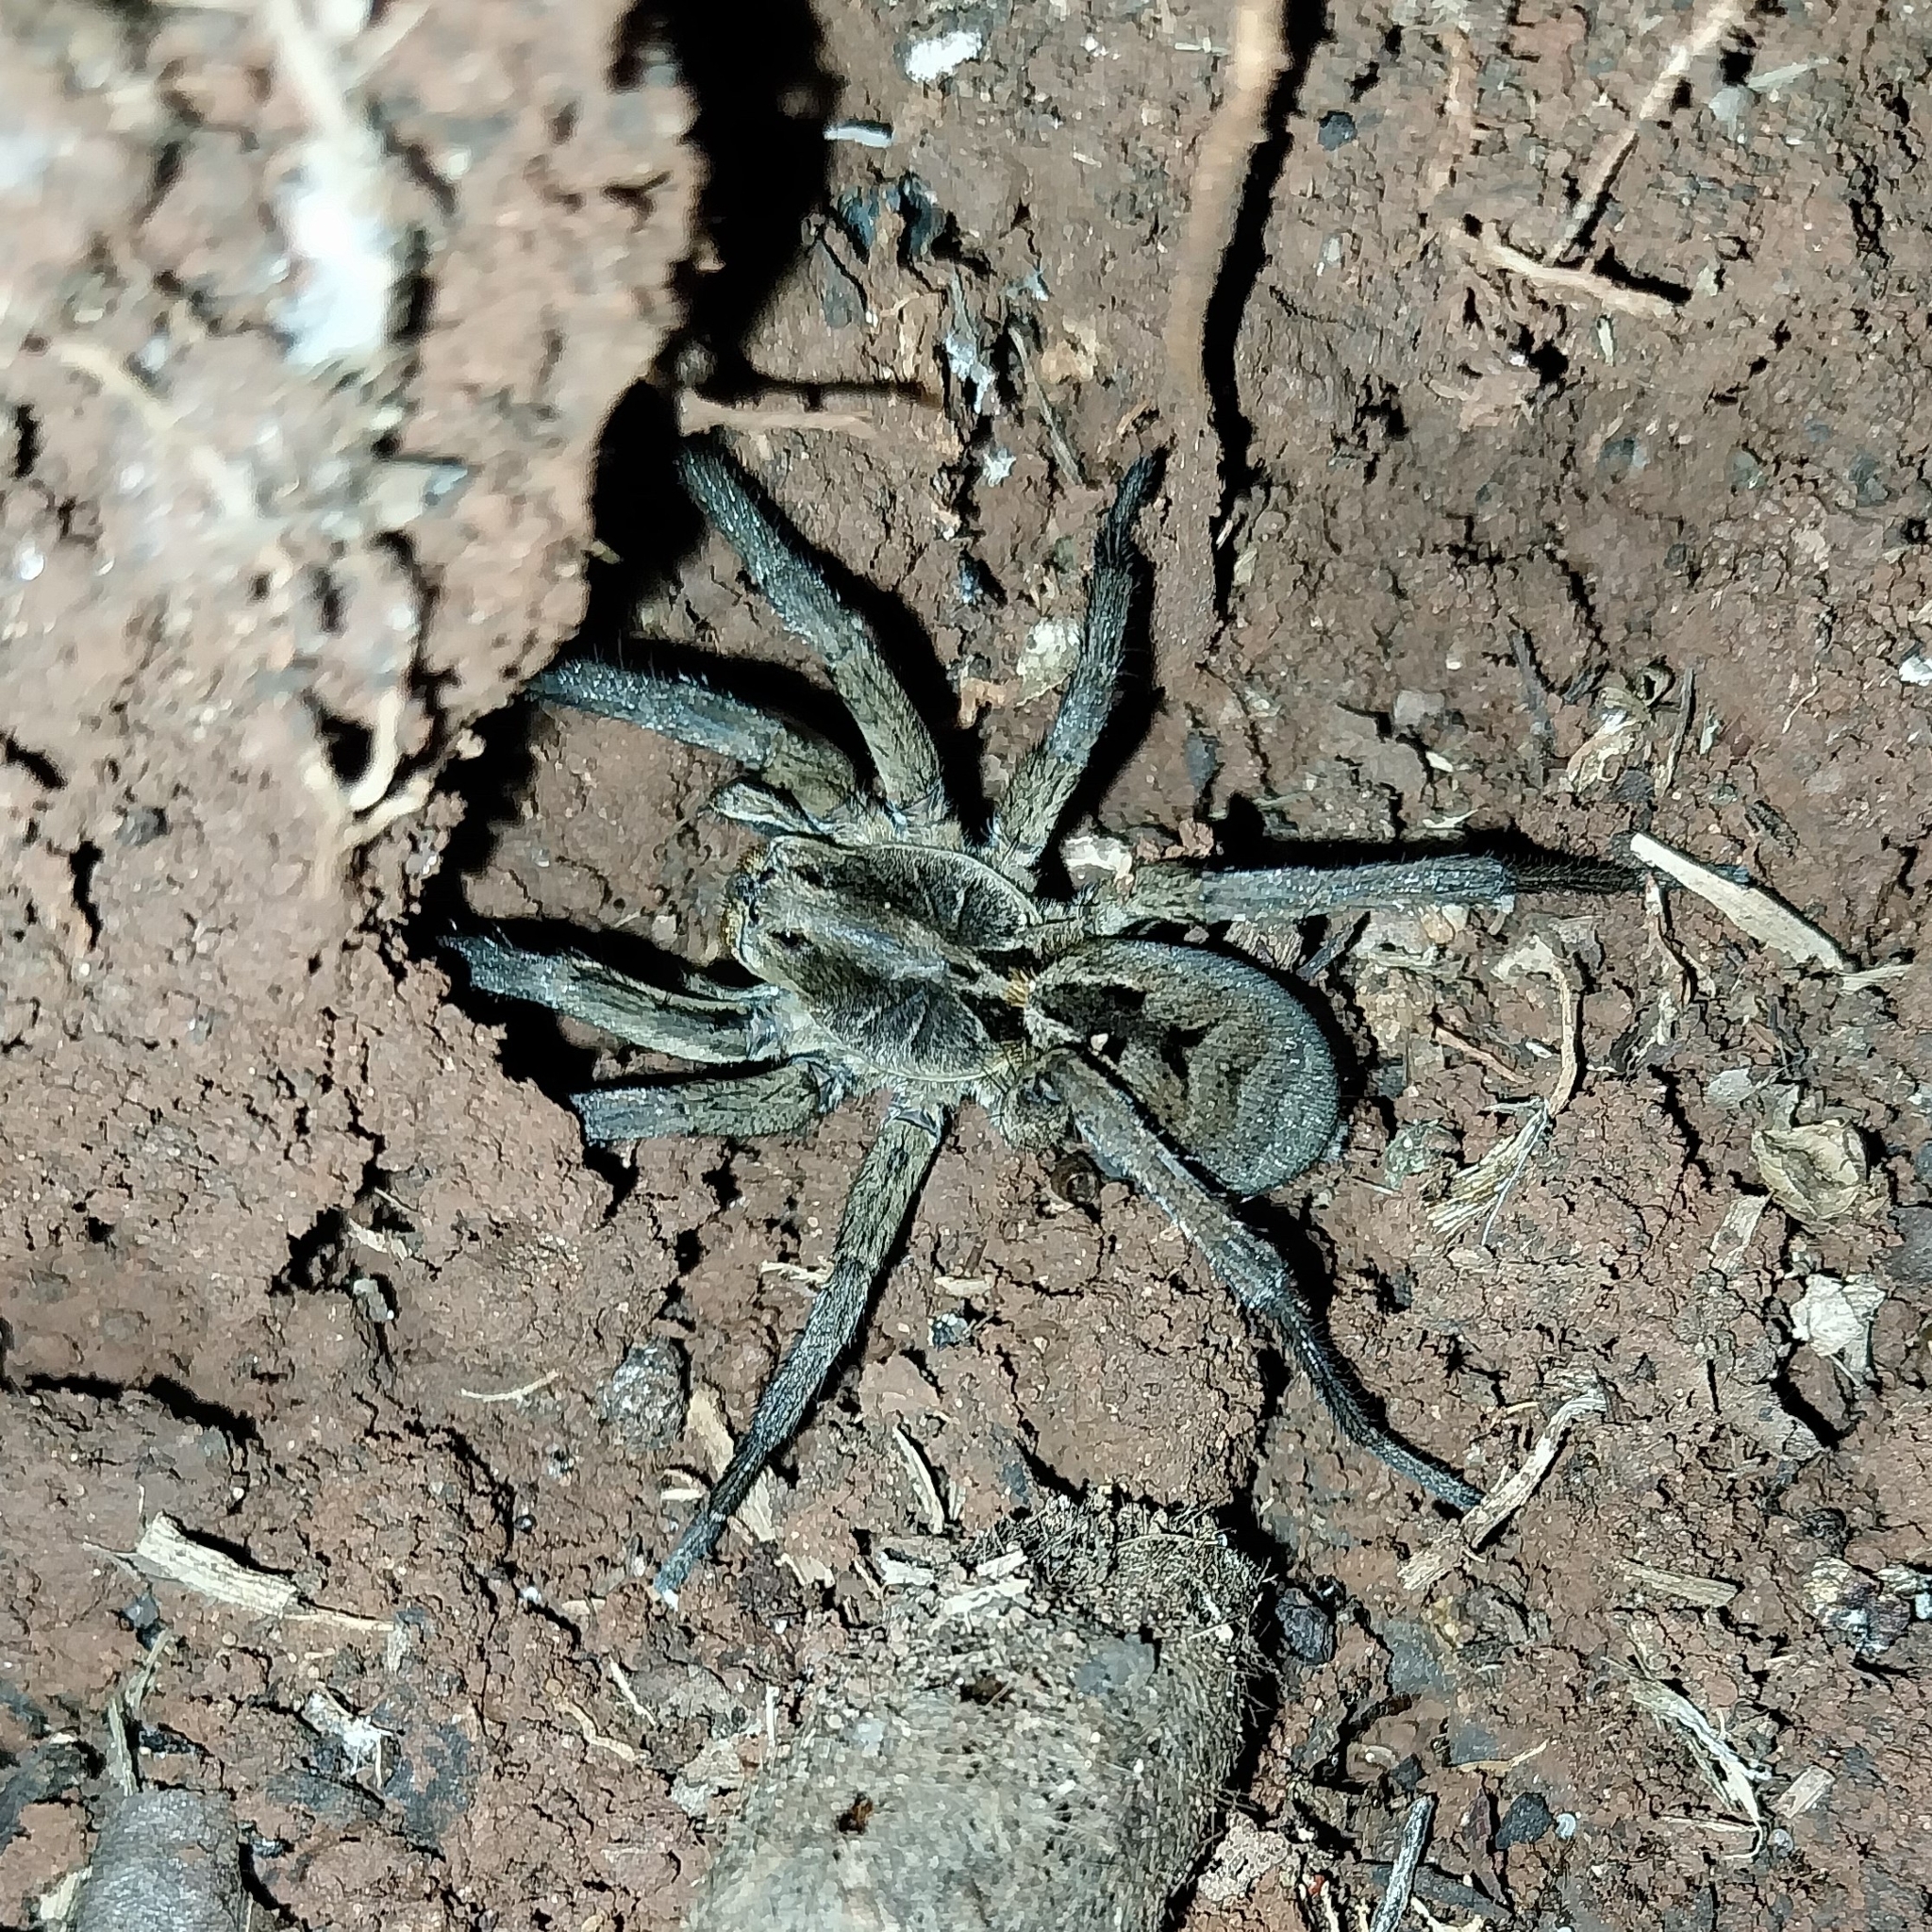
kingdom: Animalia
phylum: Arthropoda
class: Arachnida
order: Araneae
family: Lycosidae
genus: Lycosa
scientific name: Lycosa erythrognatha
